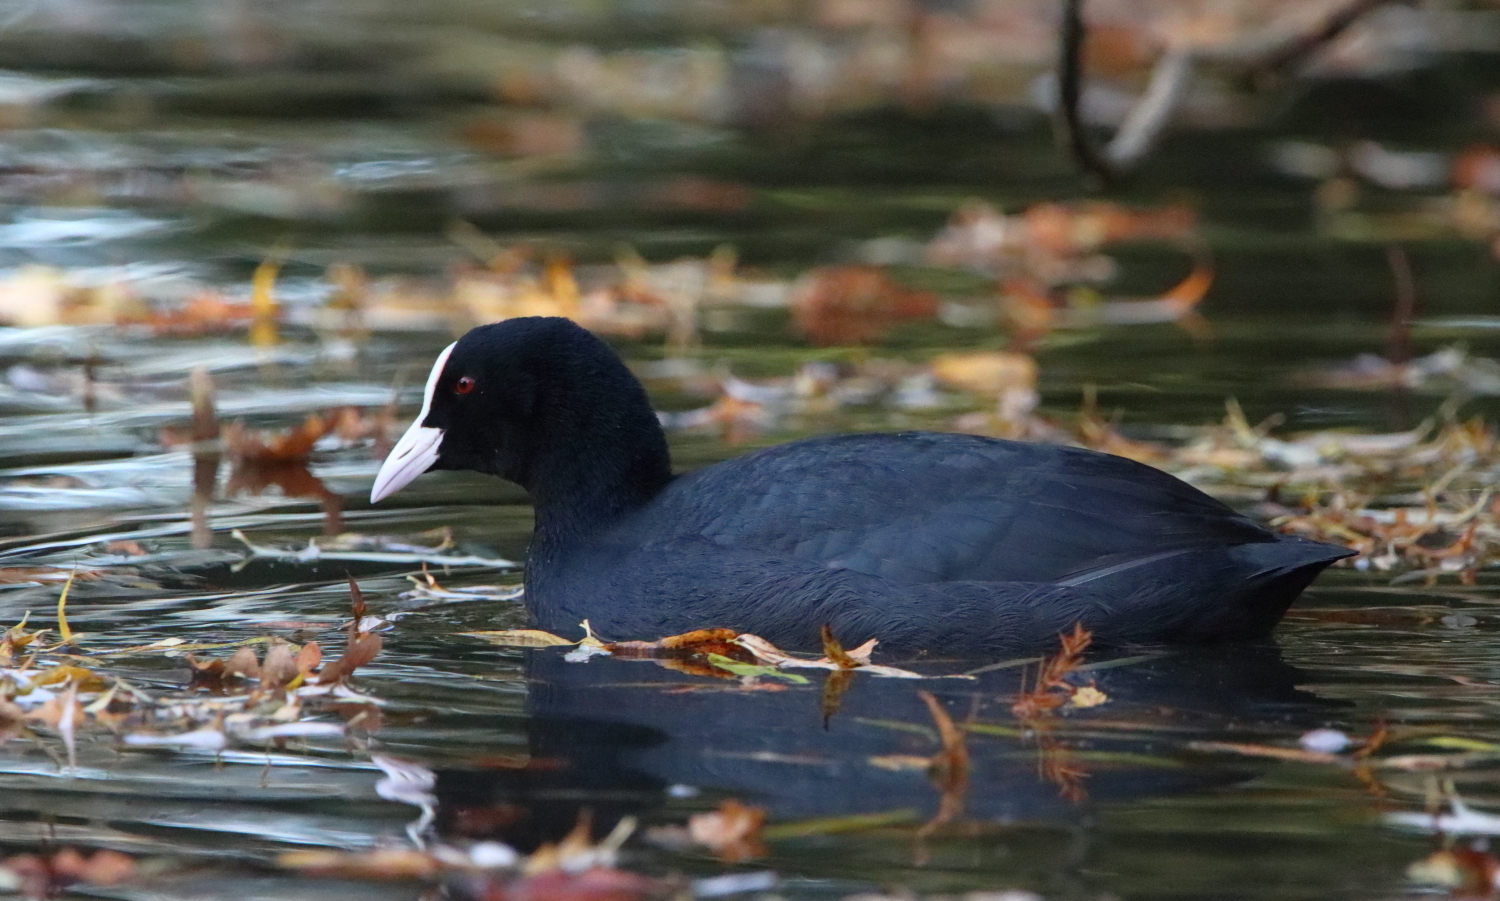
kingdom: Animalia
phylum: Chordata
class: Aves
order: Gruiformes
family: Rallidae
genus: Fulica
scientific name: Fulica atra
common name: Eurasian coot
